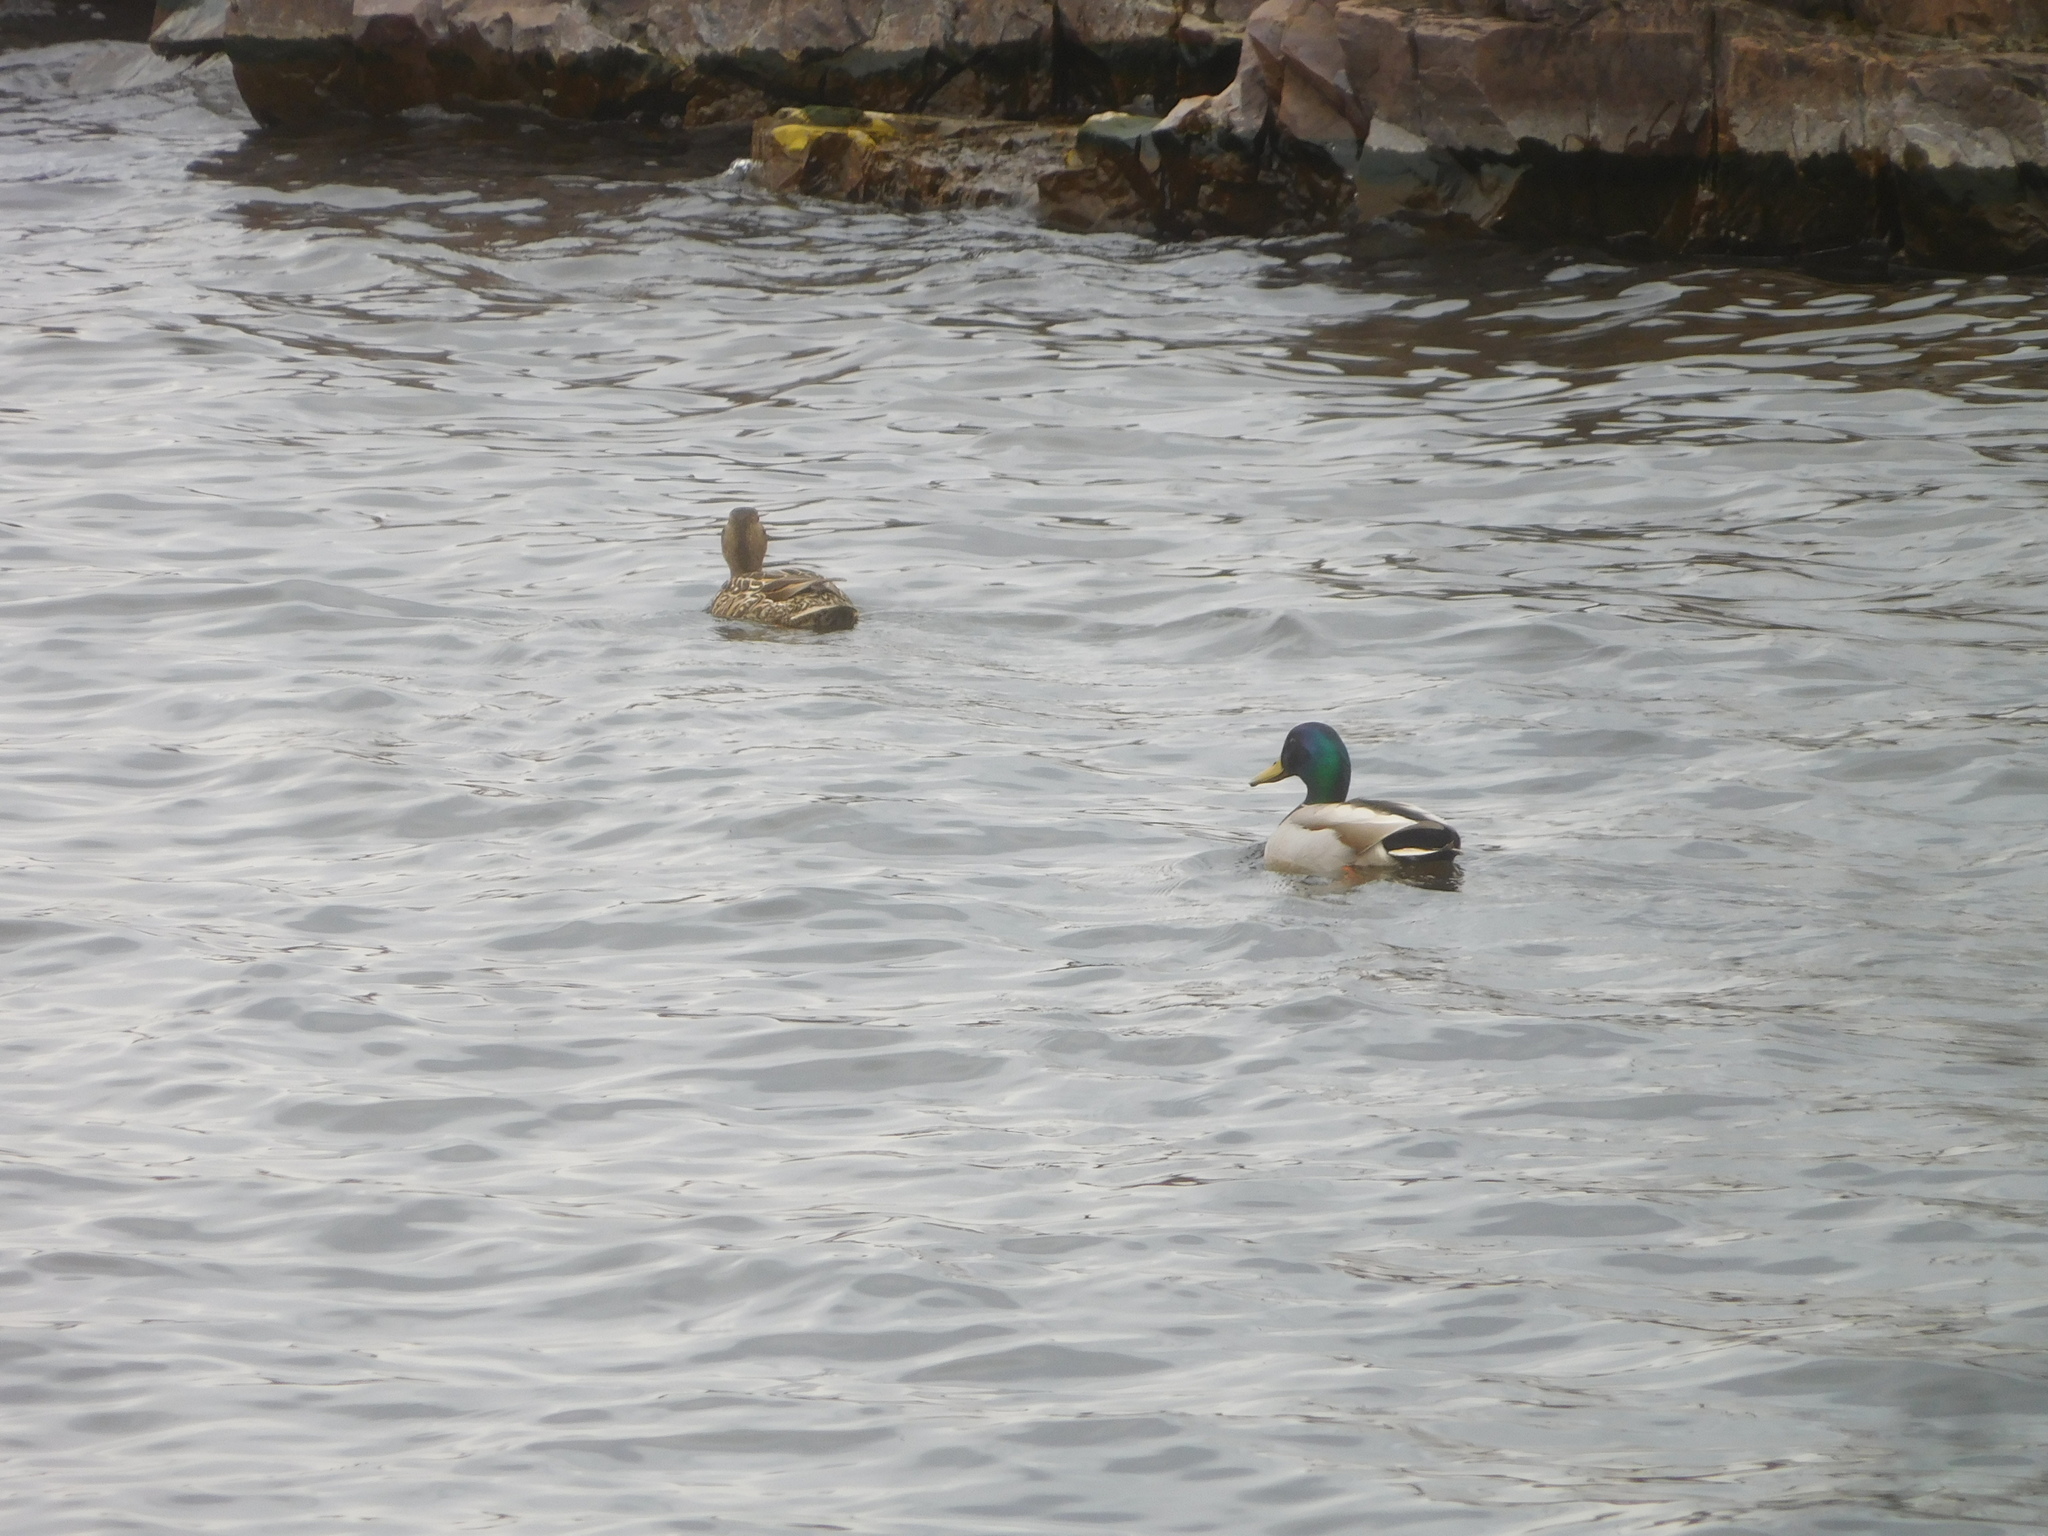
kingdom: Animalia
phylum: Chordata
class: Aves
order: Anseriformes
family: Anatidae
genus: Anas
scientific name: Anas platyrhynchos
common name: Mallard
